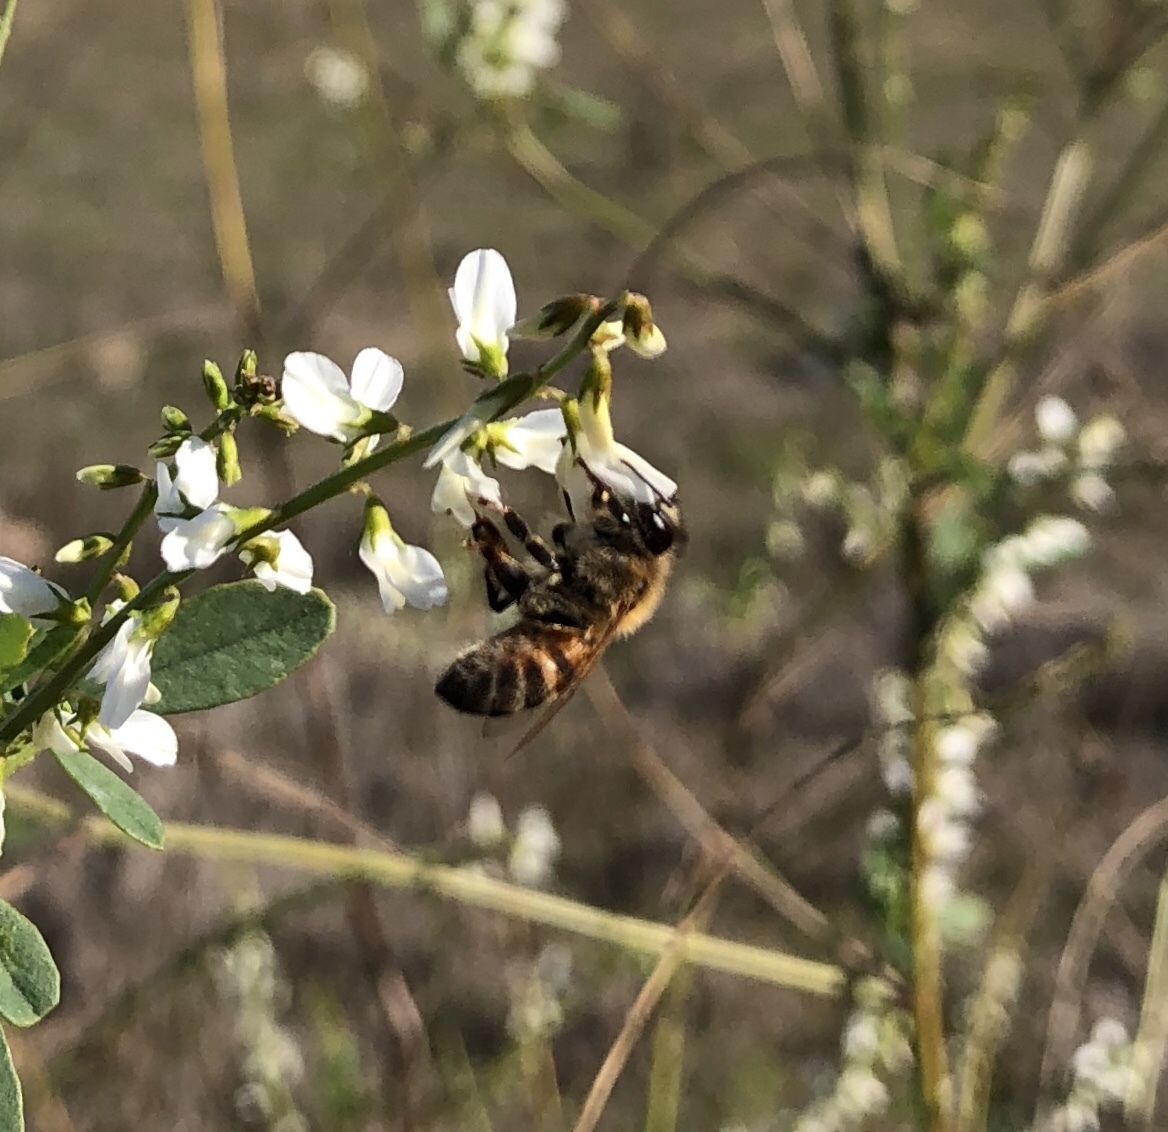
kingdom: Animalia
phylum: Arthropoda
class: Insecta
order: Hymenoptera
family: Apidae
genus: Apis
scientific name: Apis mellifera
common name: Honey bee
